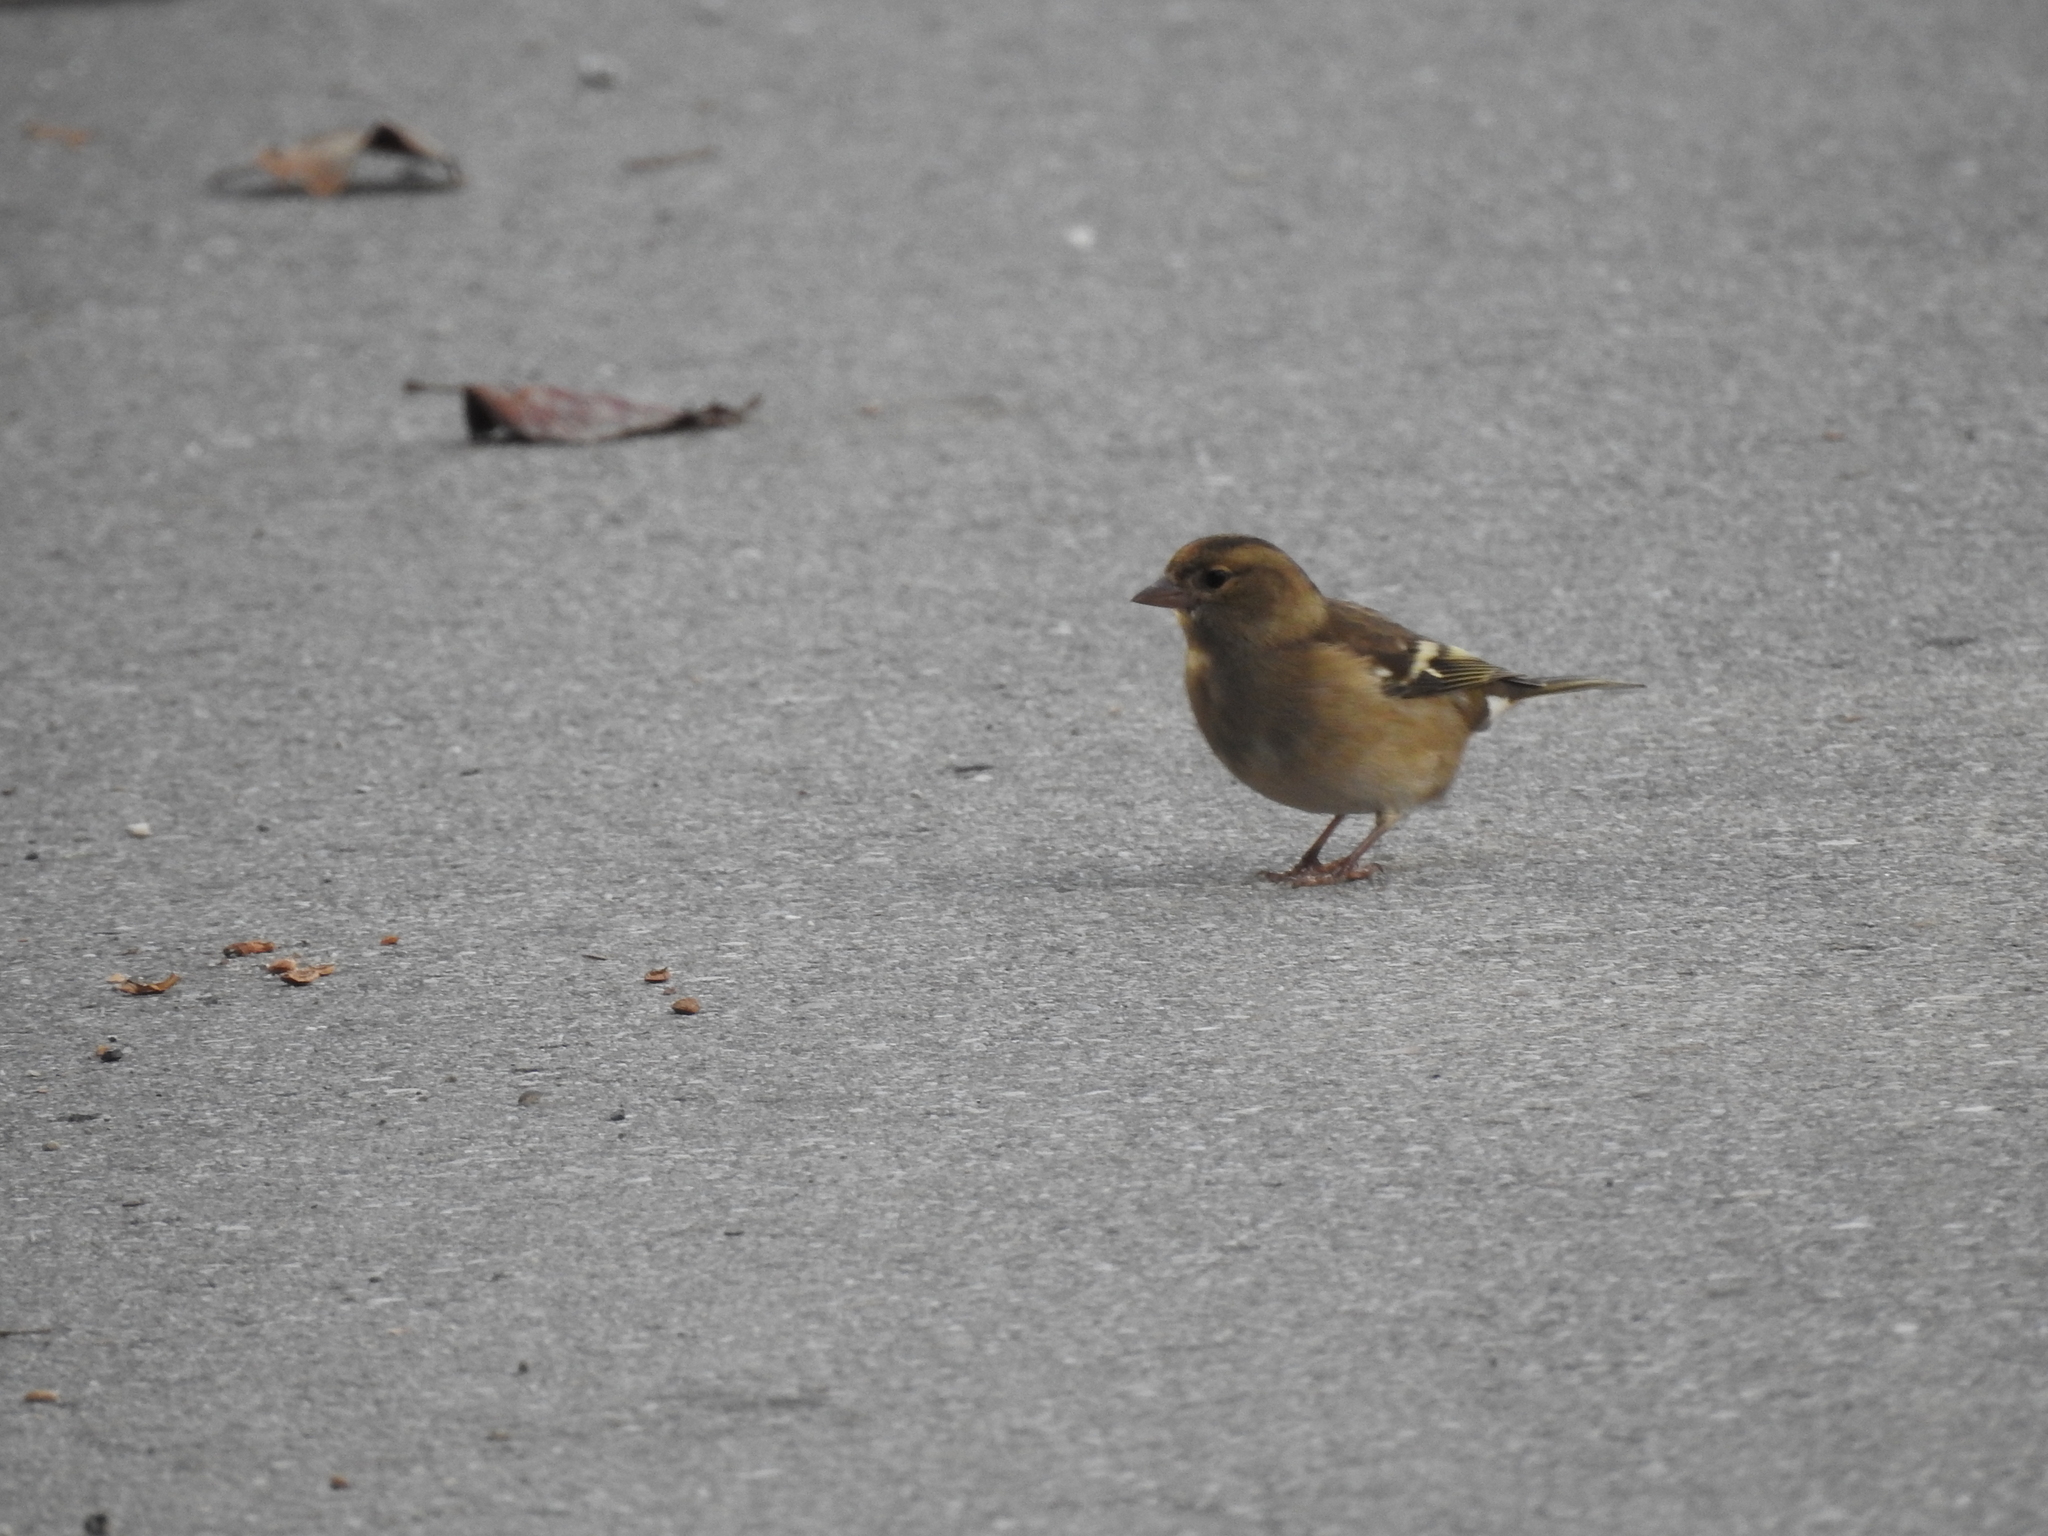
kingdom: Animalia
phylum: Chordata
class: Aves
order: Passeriformes
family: Fringillidae
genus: Fringilla
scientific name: Fringilla coelebs
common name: Common chaffinch
